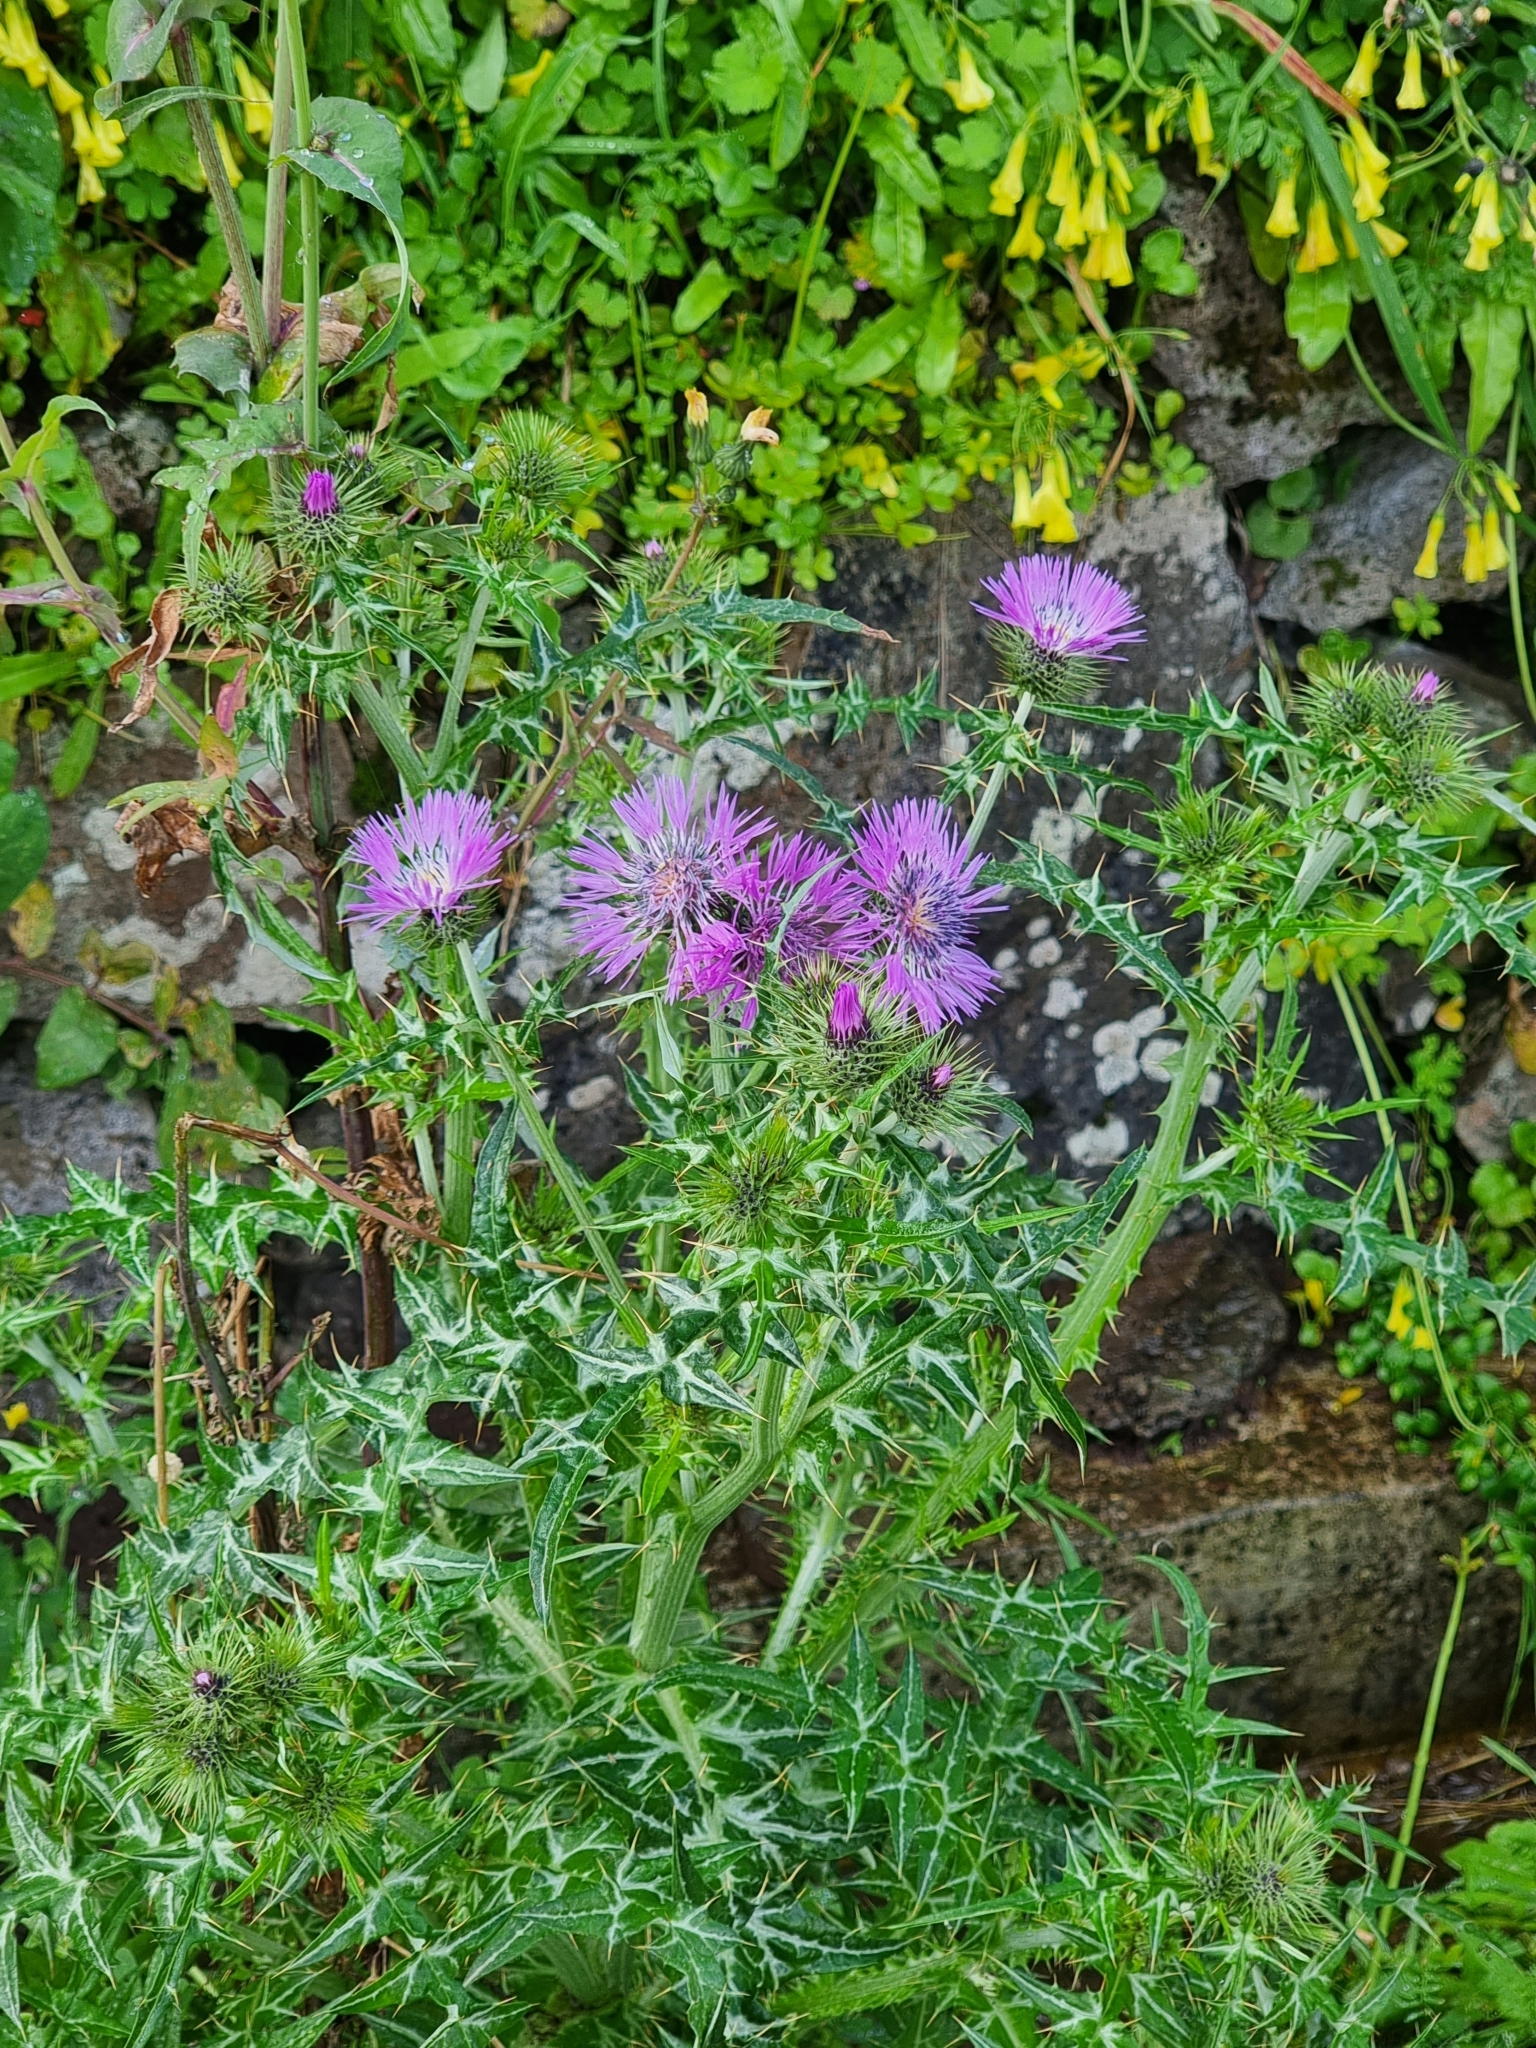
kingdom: Plantae
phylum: Tracheophyta
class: Magnoliopsida
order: Asterales
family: Asteraceae
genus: Galactites
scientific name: Galactites tomentosa
